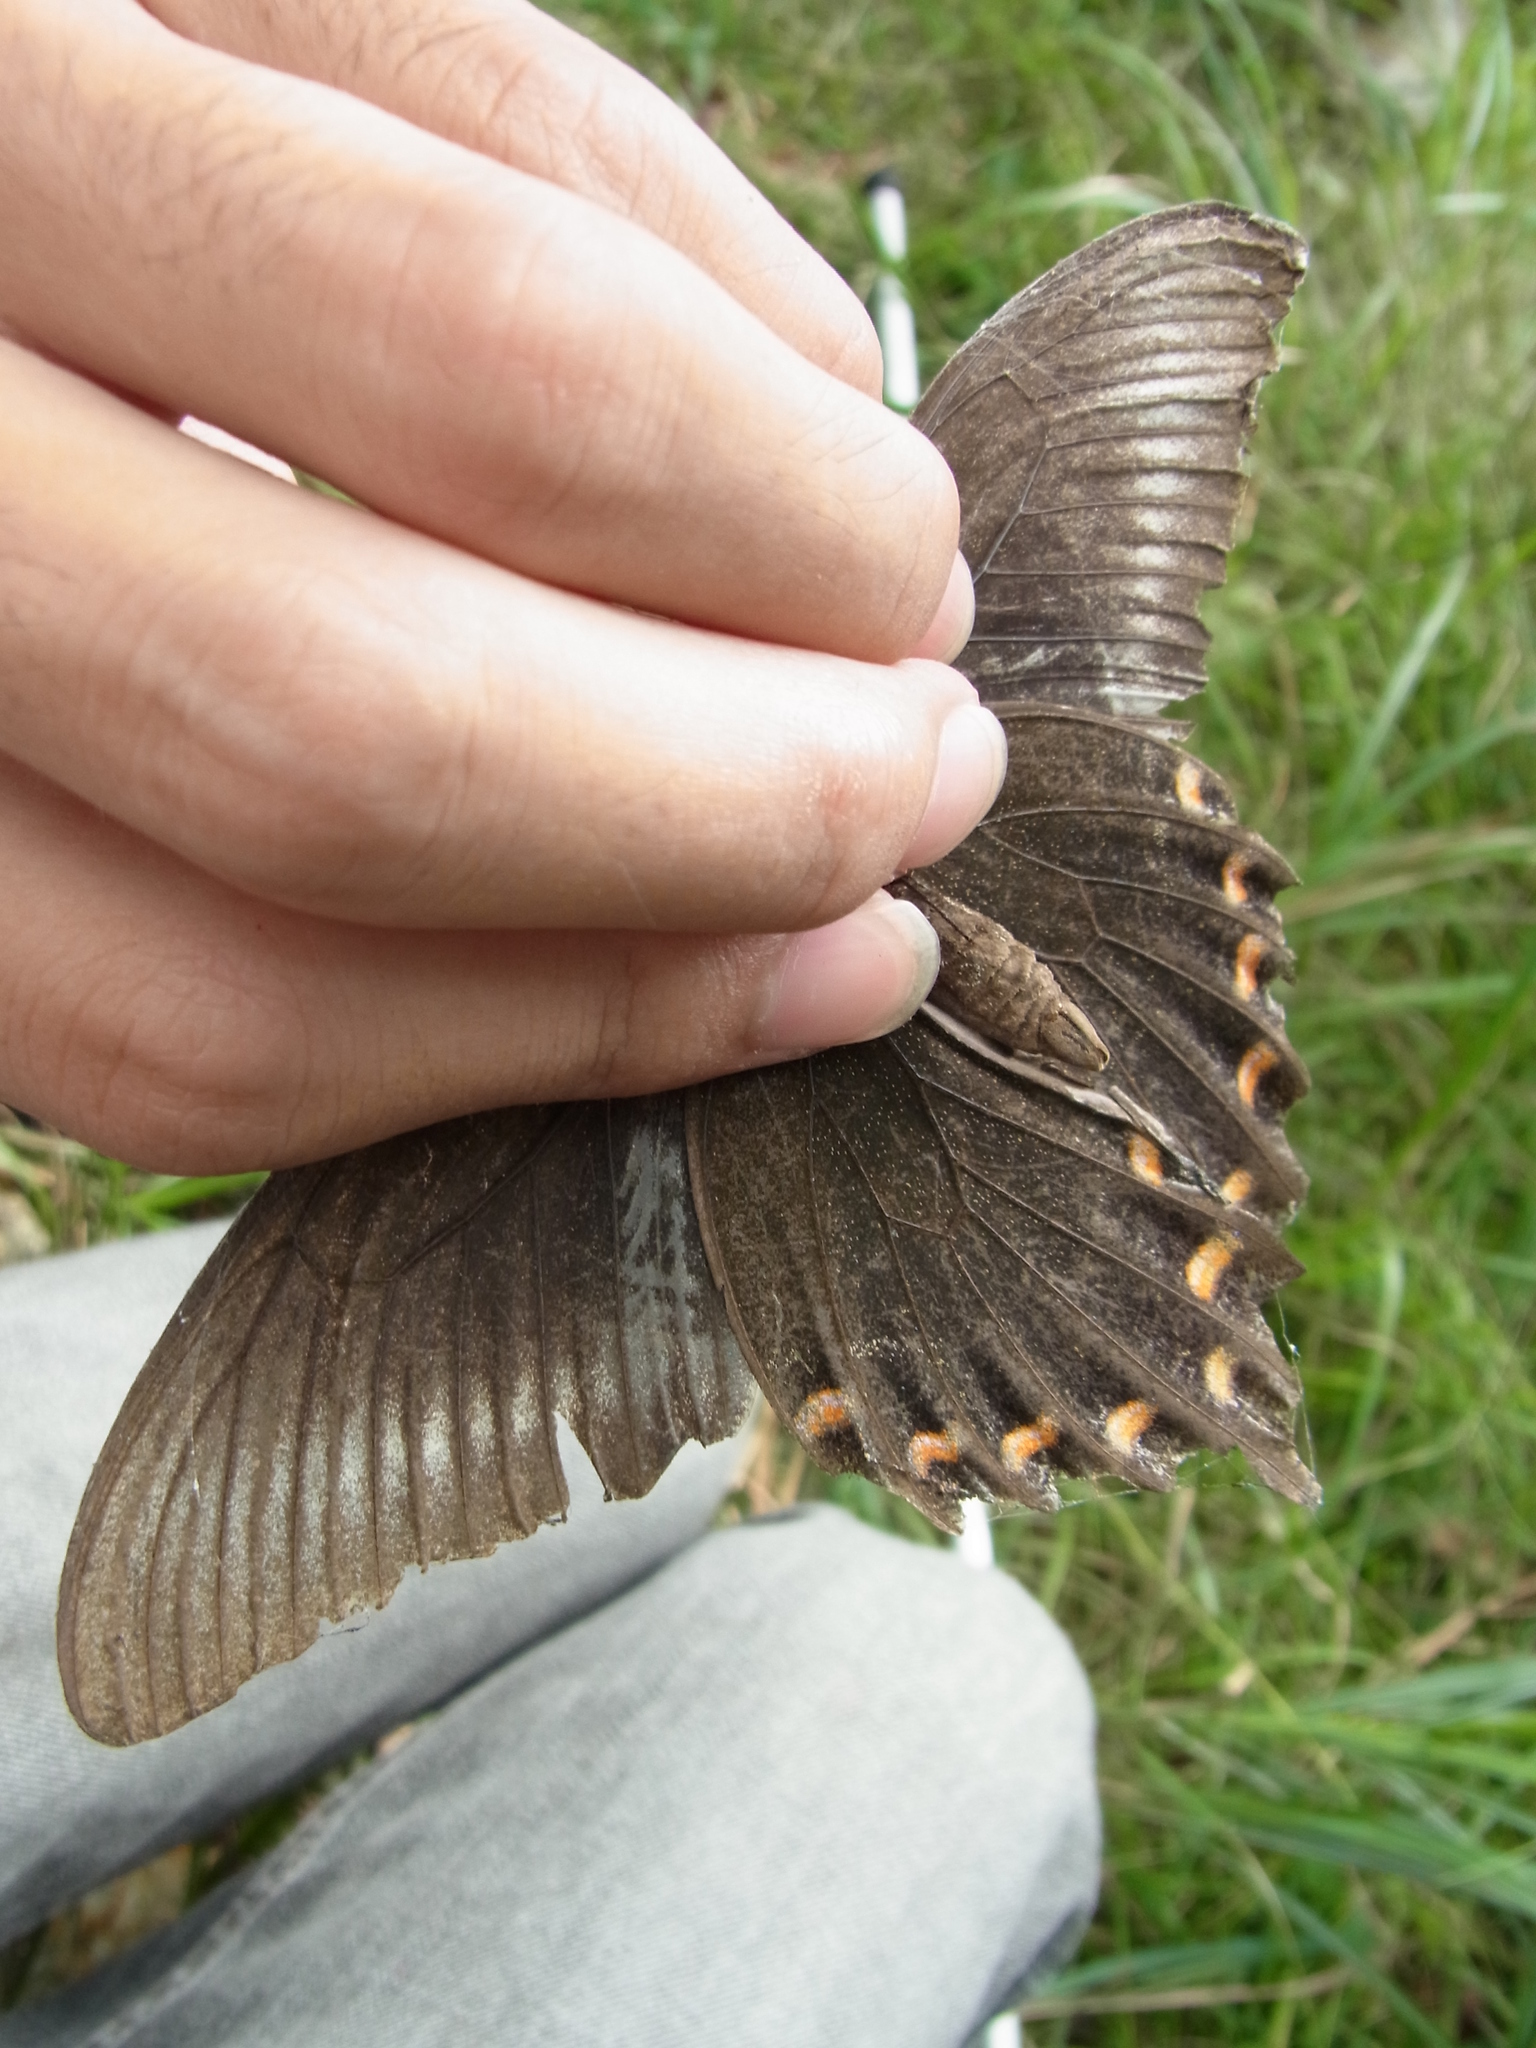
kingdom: Animalia
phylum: Arthropoda
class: Insecta
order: Lepidoptera
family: Papilionidae
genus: Papilio
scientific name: Papilio maackii
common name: Alpine black swallowtail
